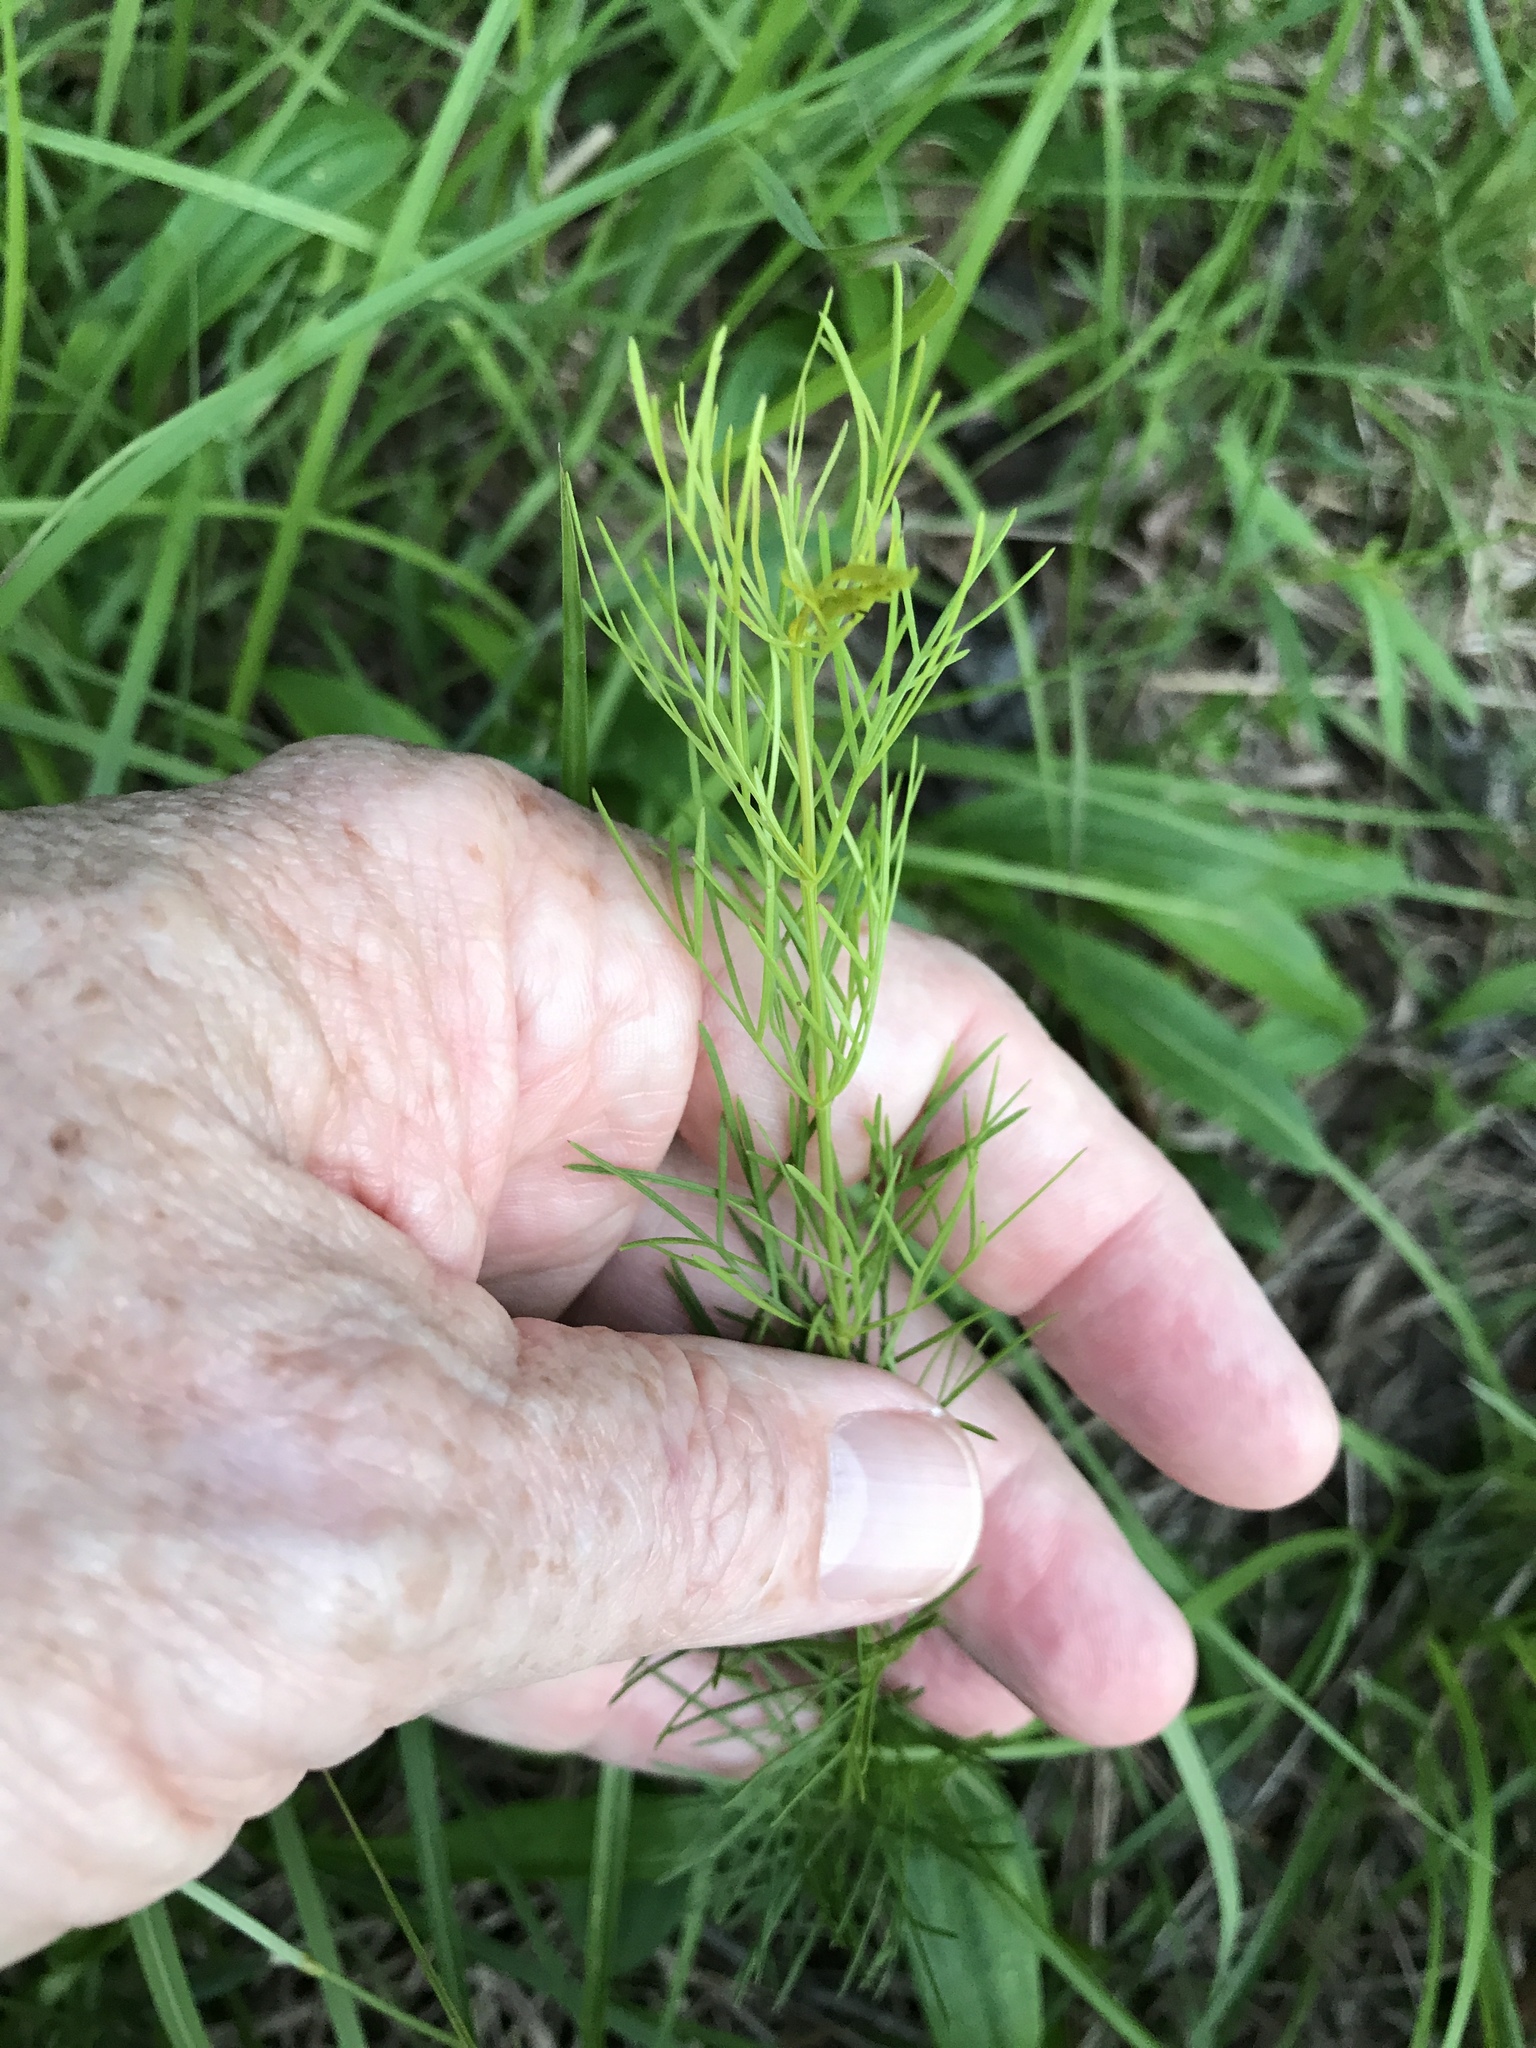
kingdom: Plantae
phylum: Tracheophyta
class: Magnoliopsida
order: Asterales
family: Asteraceae
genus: Coreopsis
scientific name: Coreopsis verticillata
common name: Whorled tickseed
